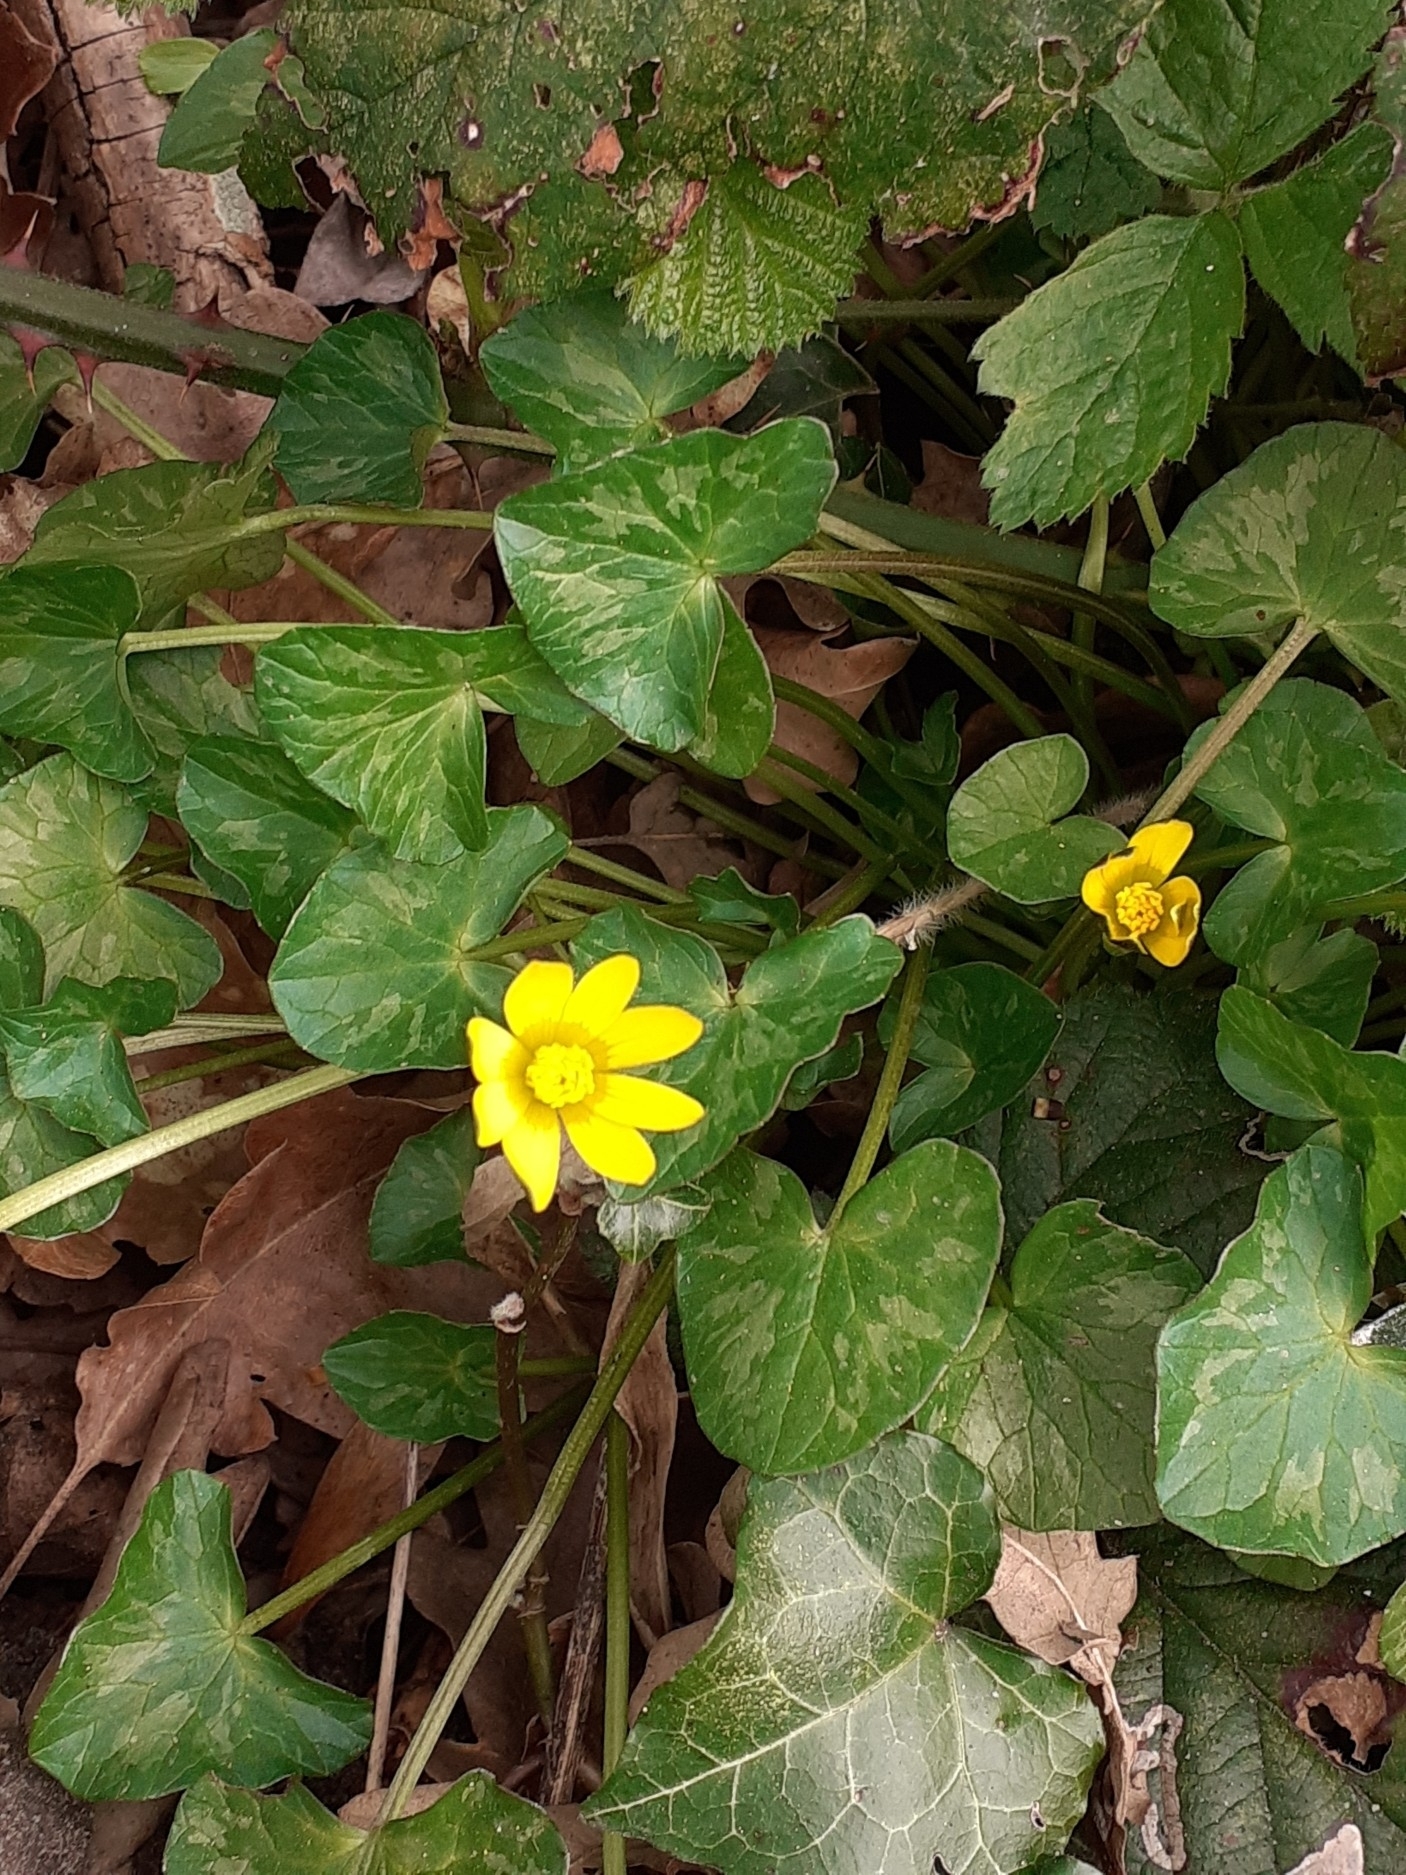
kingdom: Plantae
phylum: Tracheophyta
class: Magnoliopsida
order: Ranunculales
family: Ranunculaceae
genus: Ficaria
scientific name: Ficaria verna
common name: Lesser celandine
